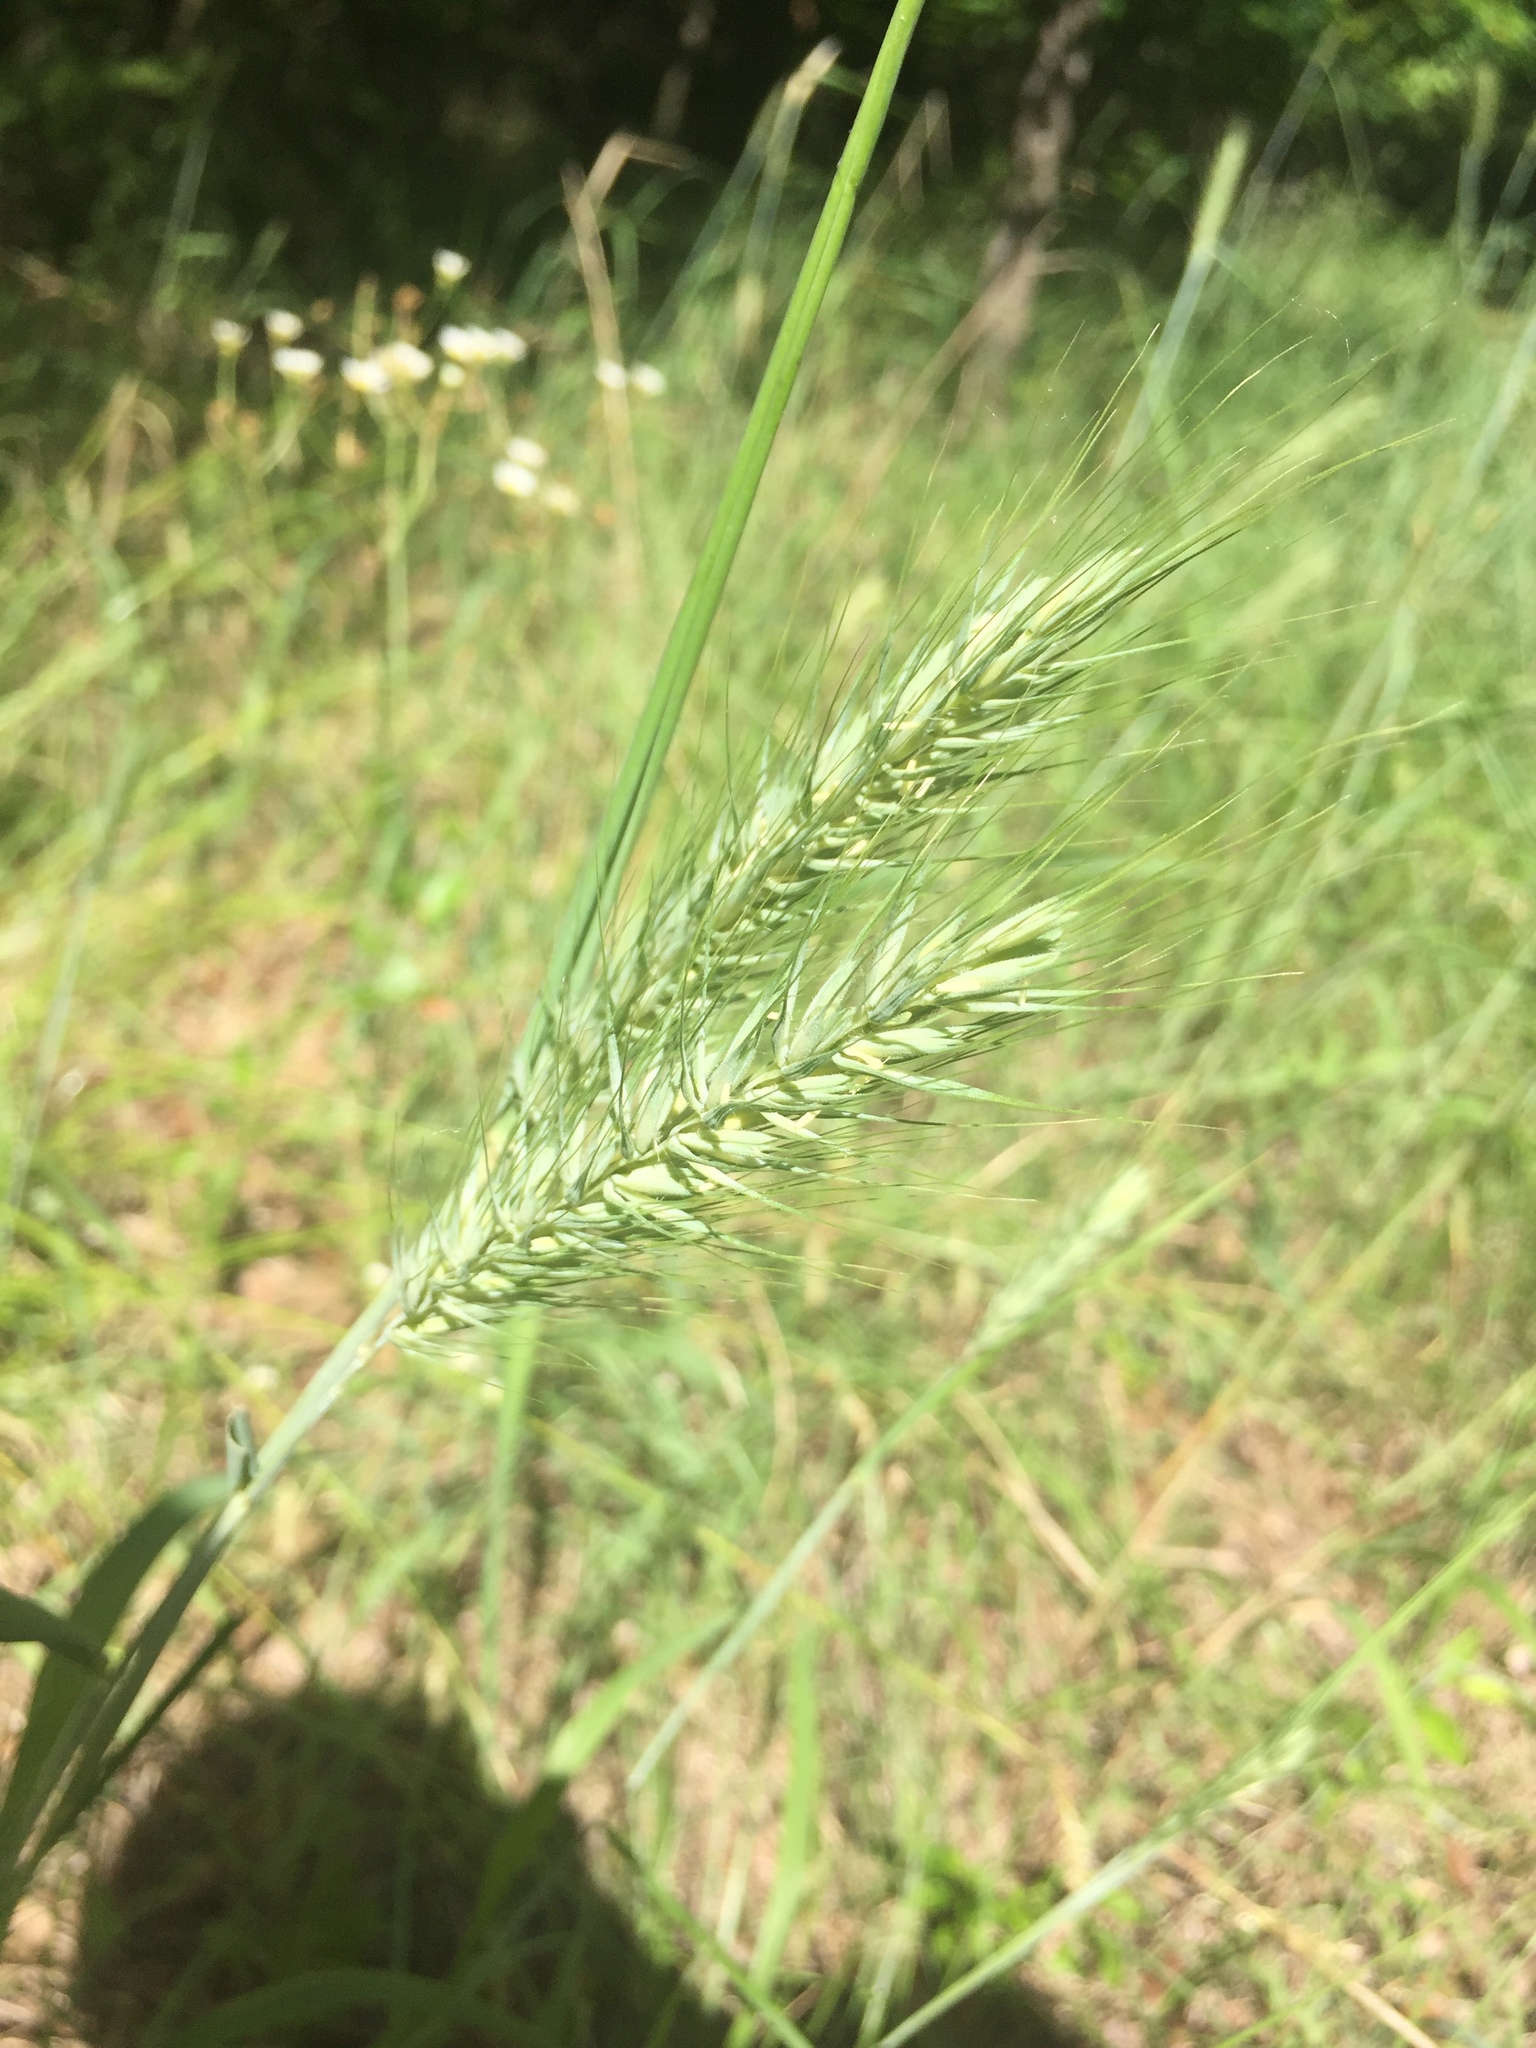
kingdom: Plantae
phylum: Tracheophyta
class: Liliopsida
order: Poales
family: Poaceae
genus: Elymus
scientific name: Elymus canadensis
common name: Canada wild rye
